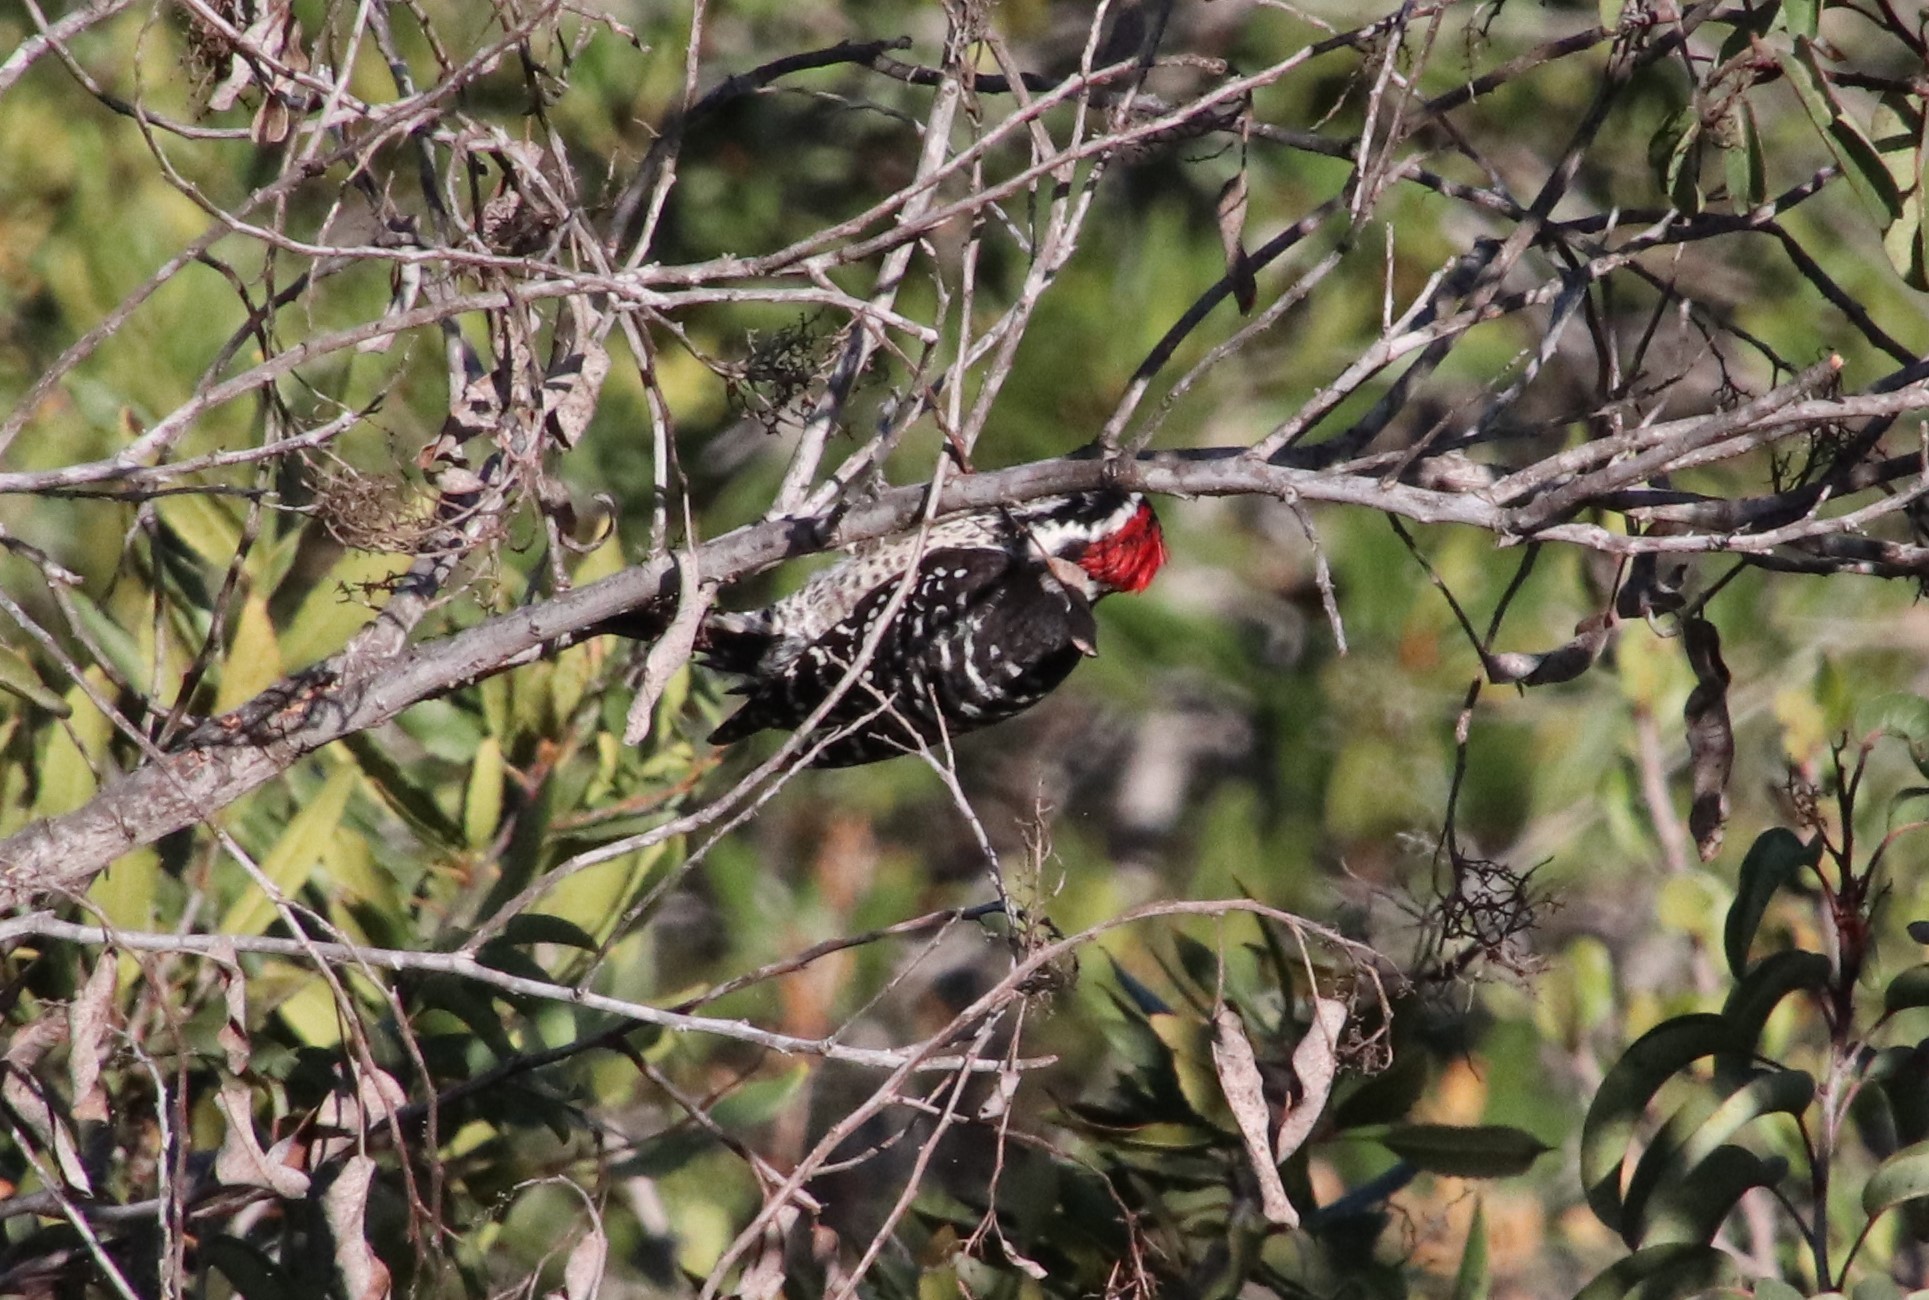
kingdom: Animalia
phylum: Chordata
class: Aves
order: Piciformes
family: Picidae
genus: Dryobates
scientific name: Dryobates nuttallii
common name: Nuttall's woodpecker
